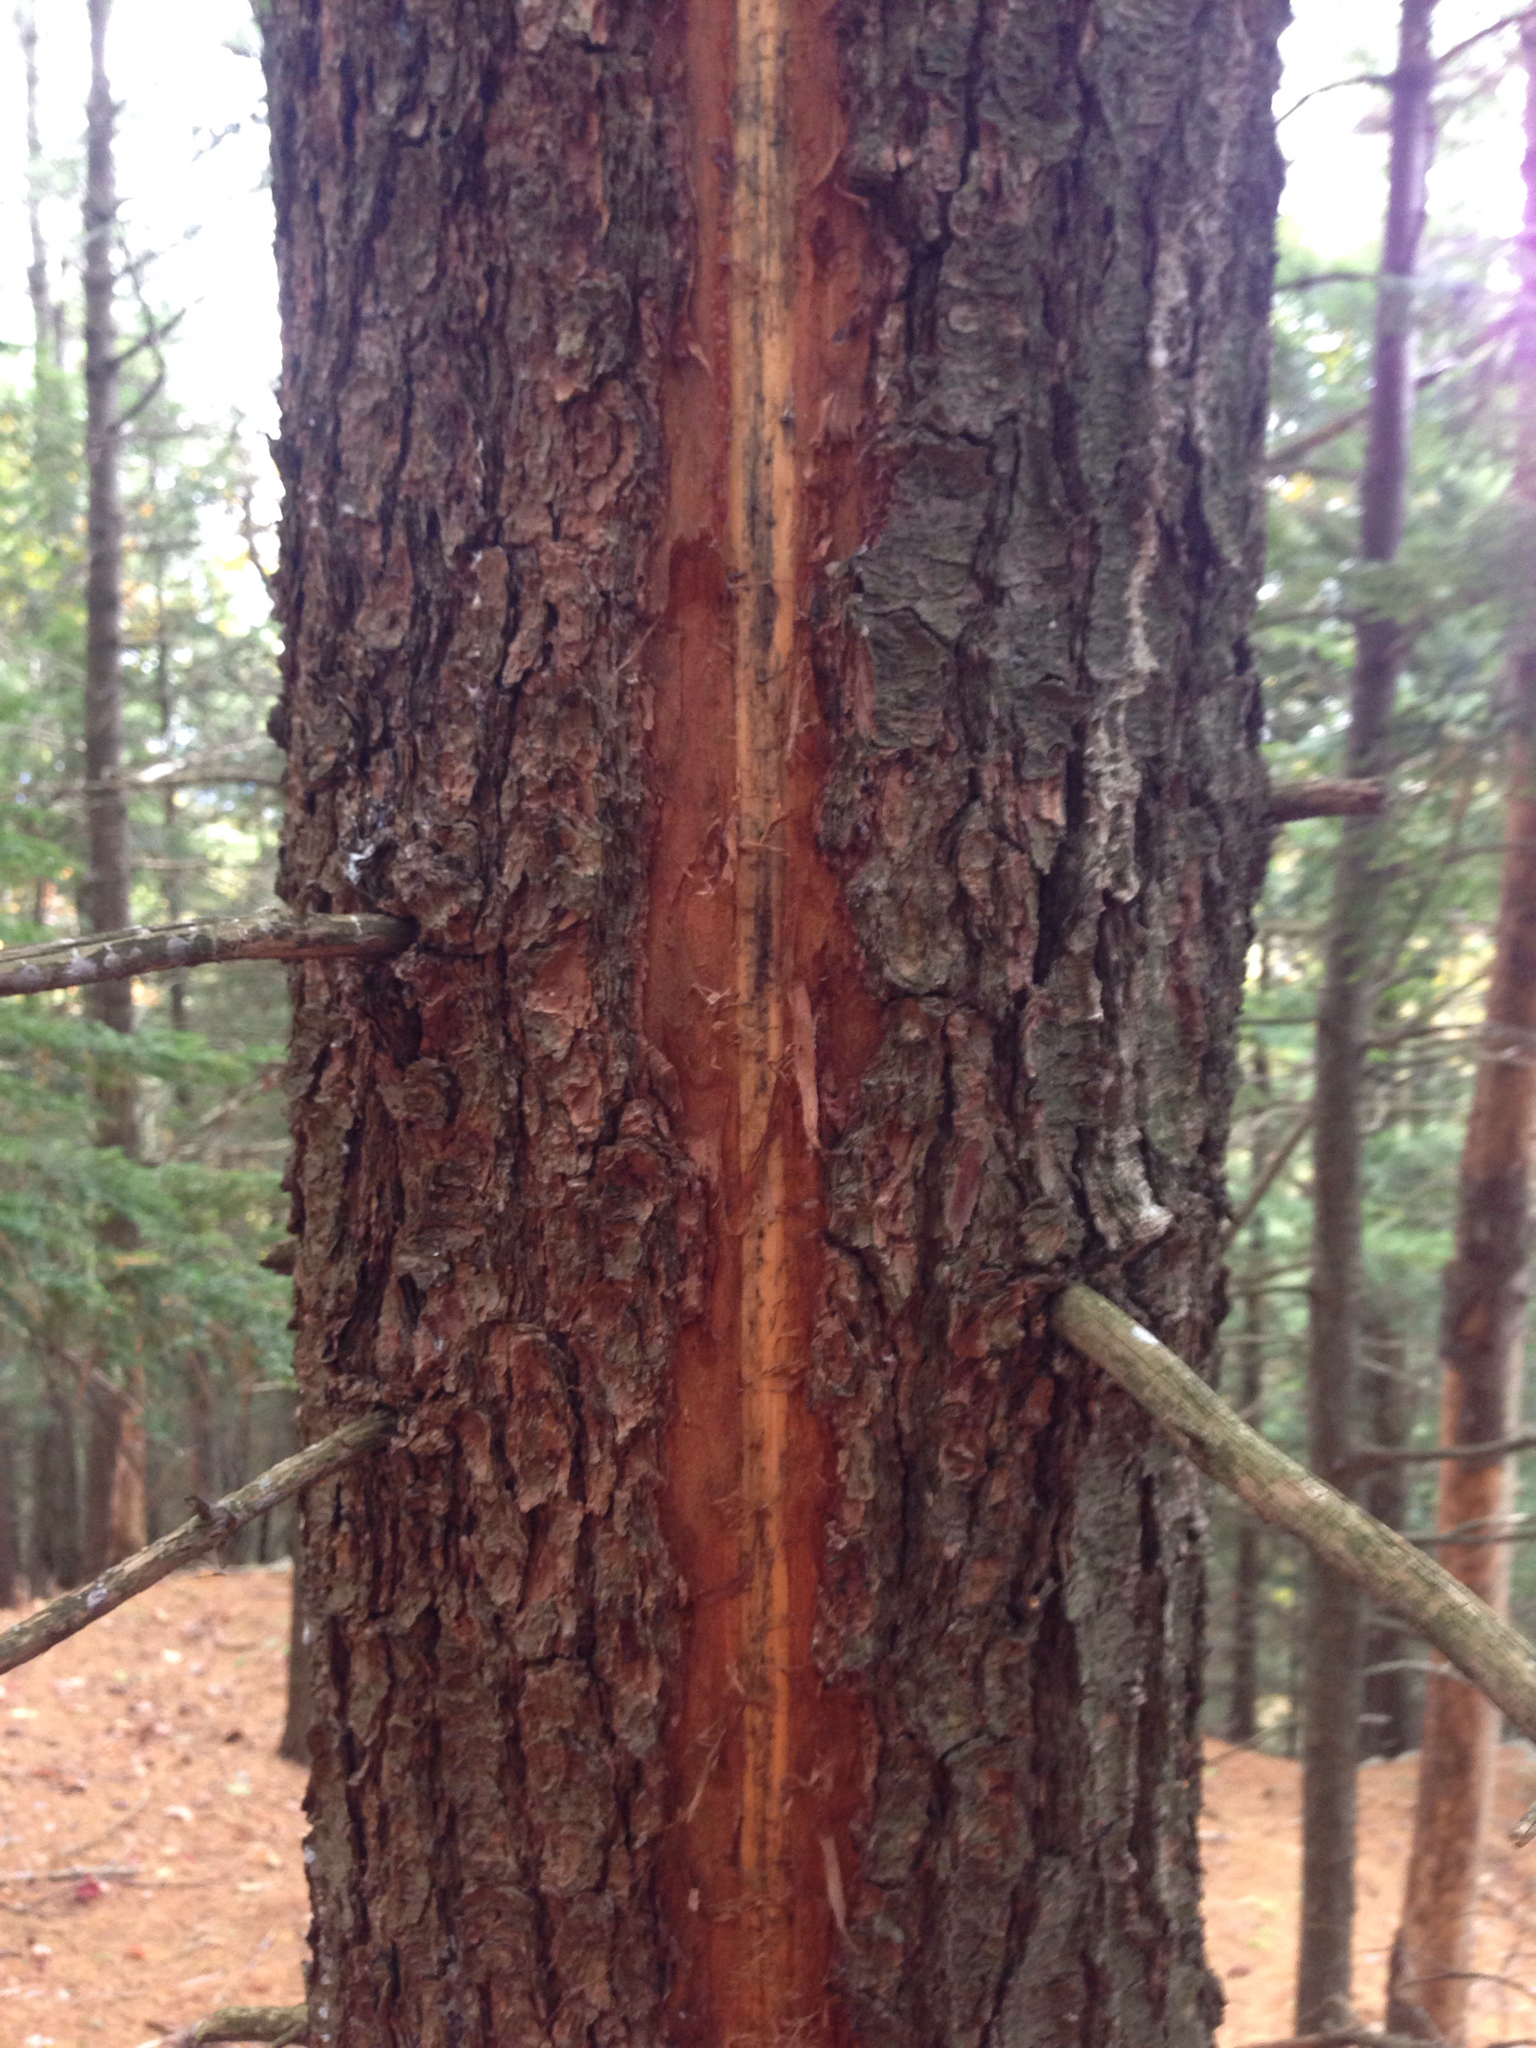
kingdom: Plantae
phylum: Tracheophyta
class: Pinopsida
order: Pinales
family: Pinaceae
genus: Pinus
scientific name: Pinus strobus
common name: Weymouth pine
